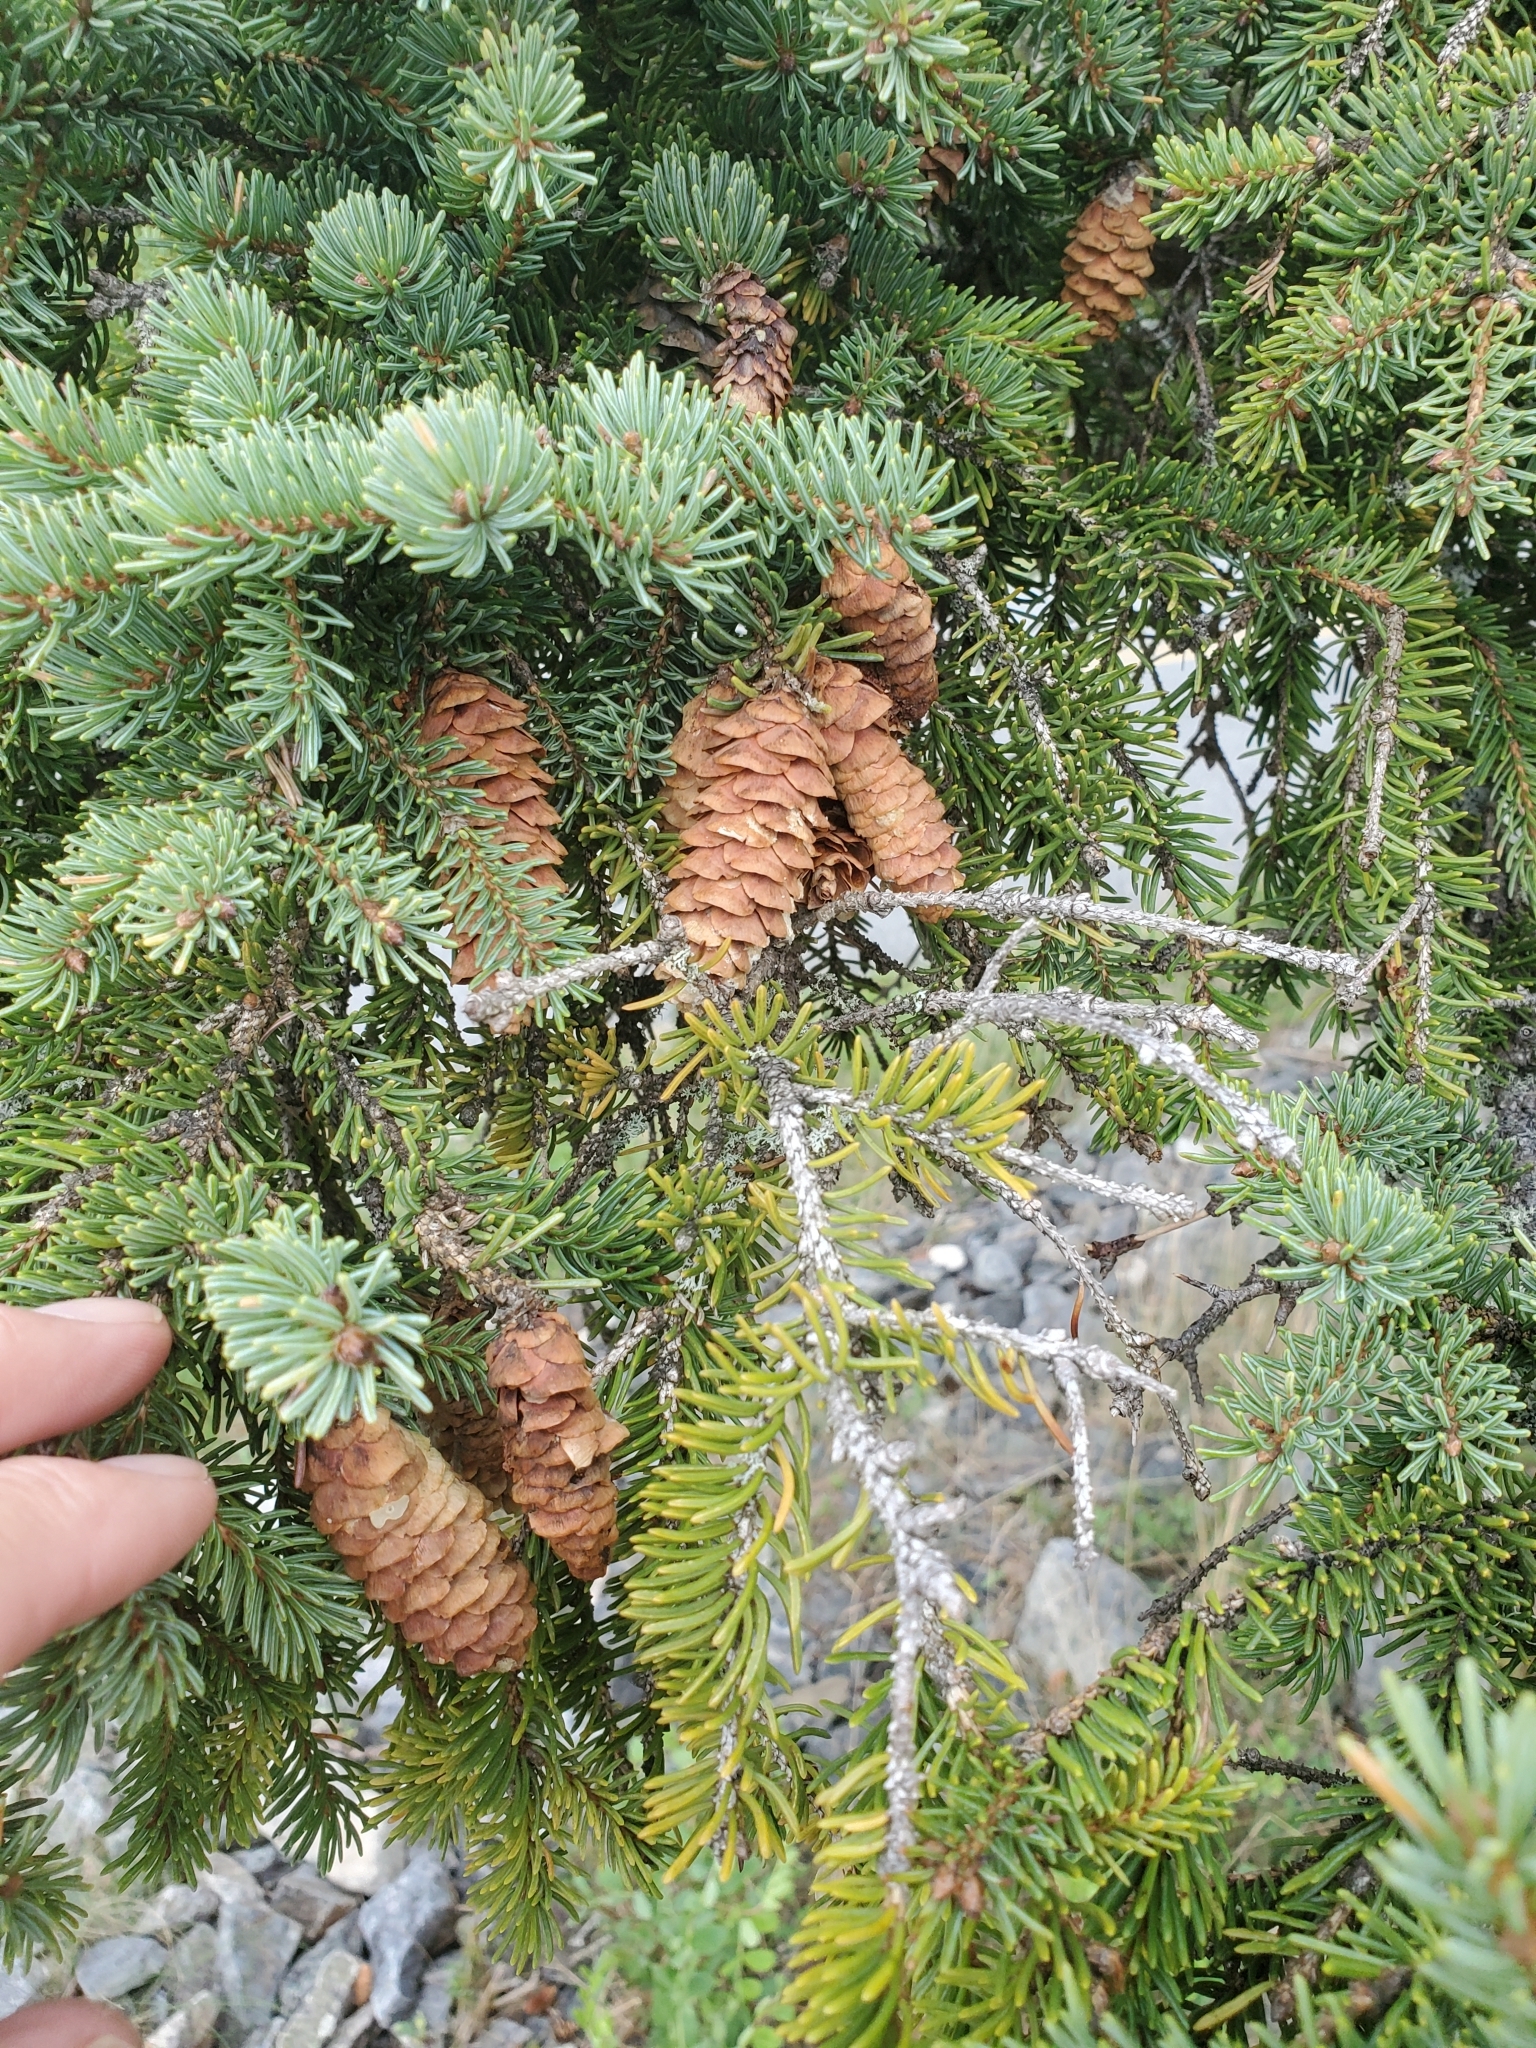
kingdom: Plantae
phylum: Tracheophyta
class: Pinopsida
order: Pinales
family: Pinaceae
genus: Picea
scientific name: Picea glauca
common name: White spruce
